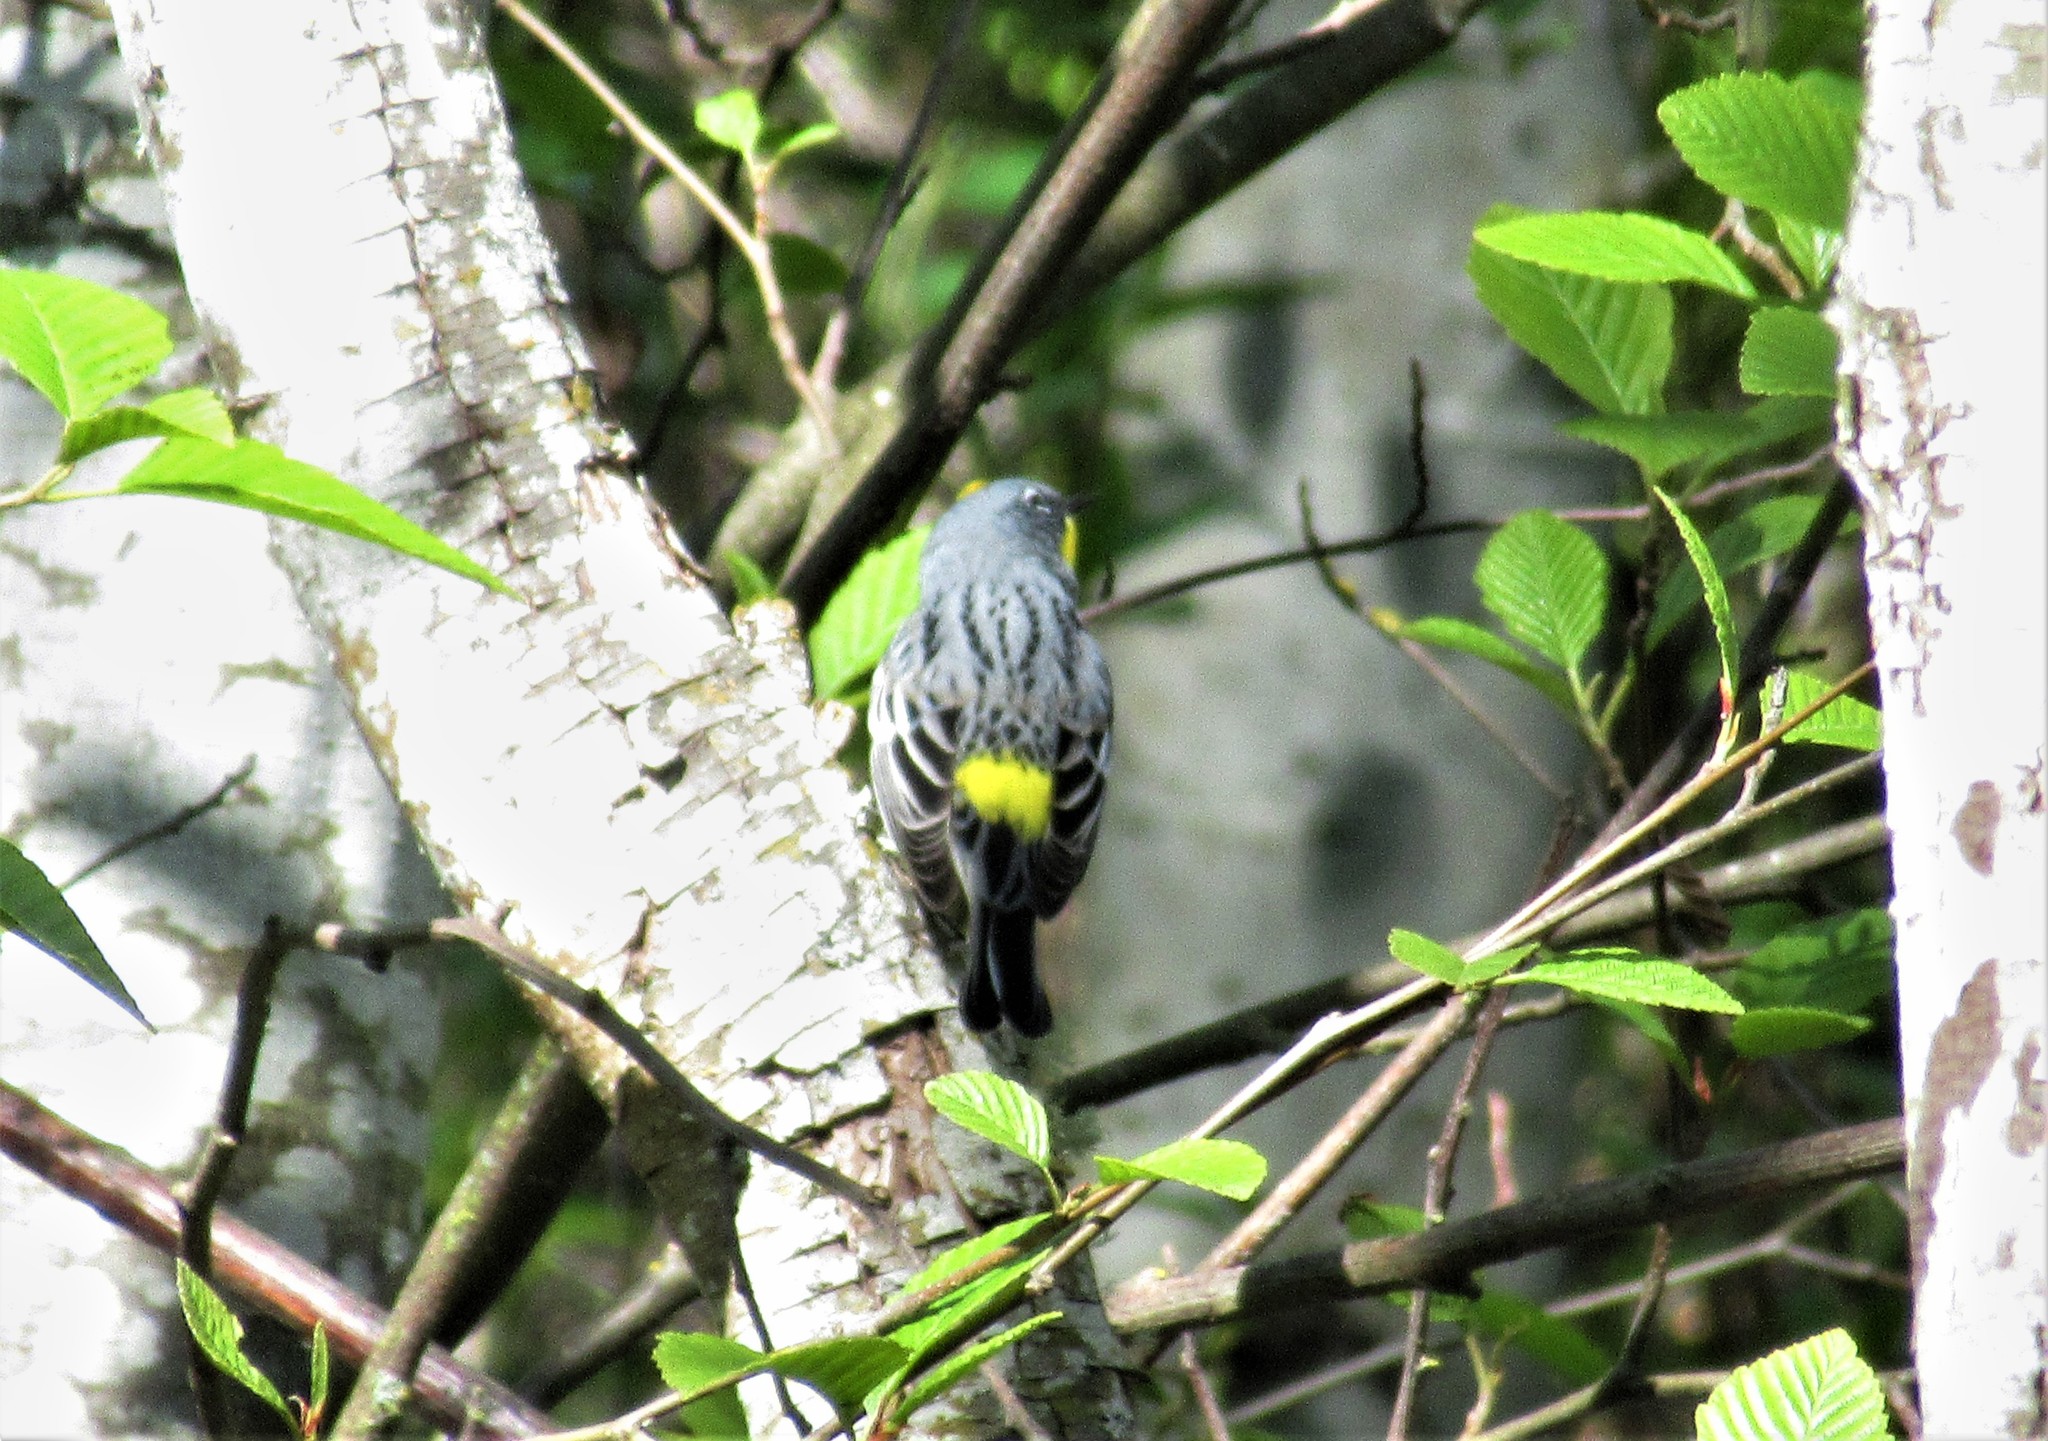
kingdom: Animalia
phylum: Chordata
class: Aves
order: Passeriformes
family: Parulidae
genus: Setophaga
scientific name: Setophaga auduboni
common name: Audubon's warbler
